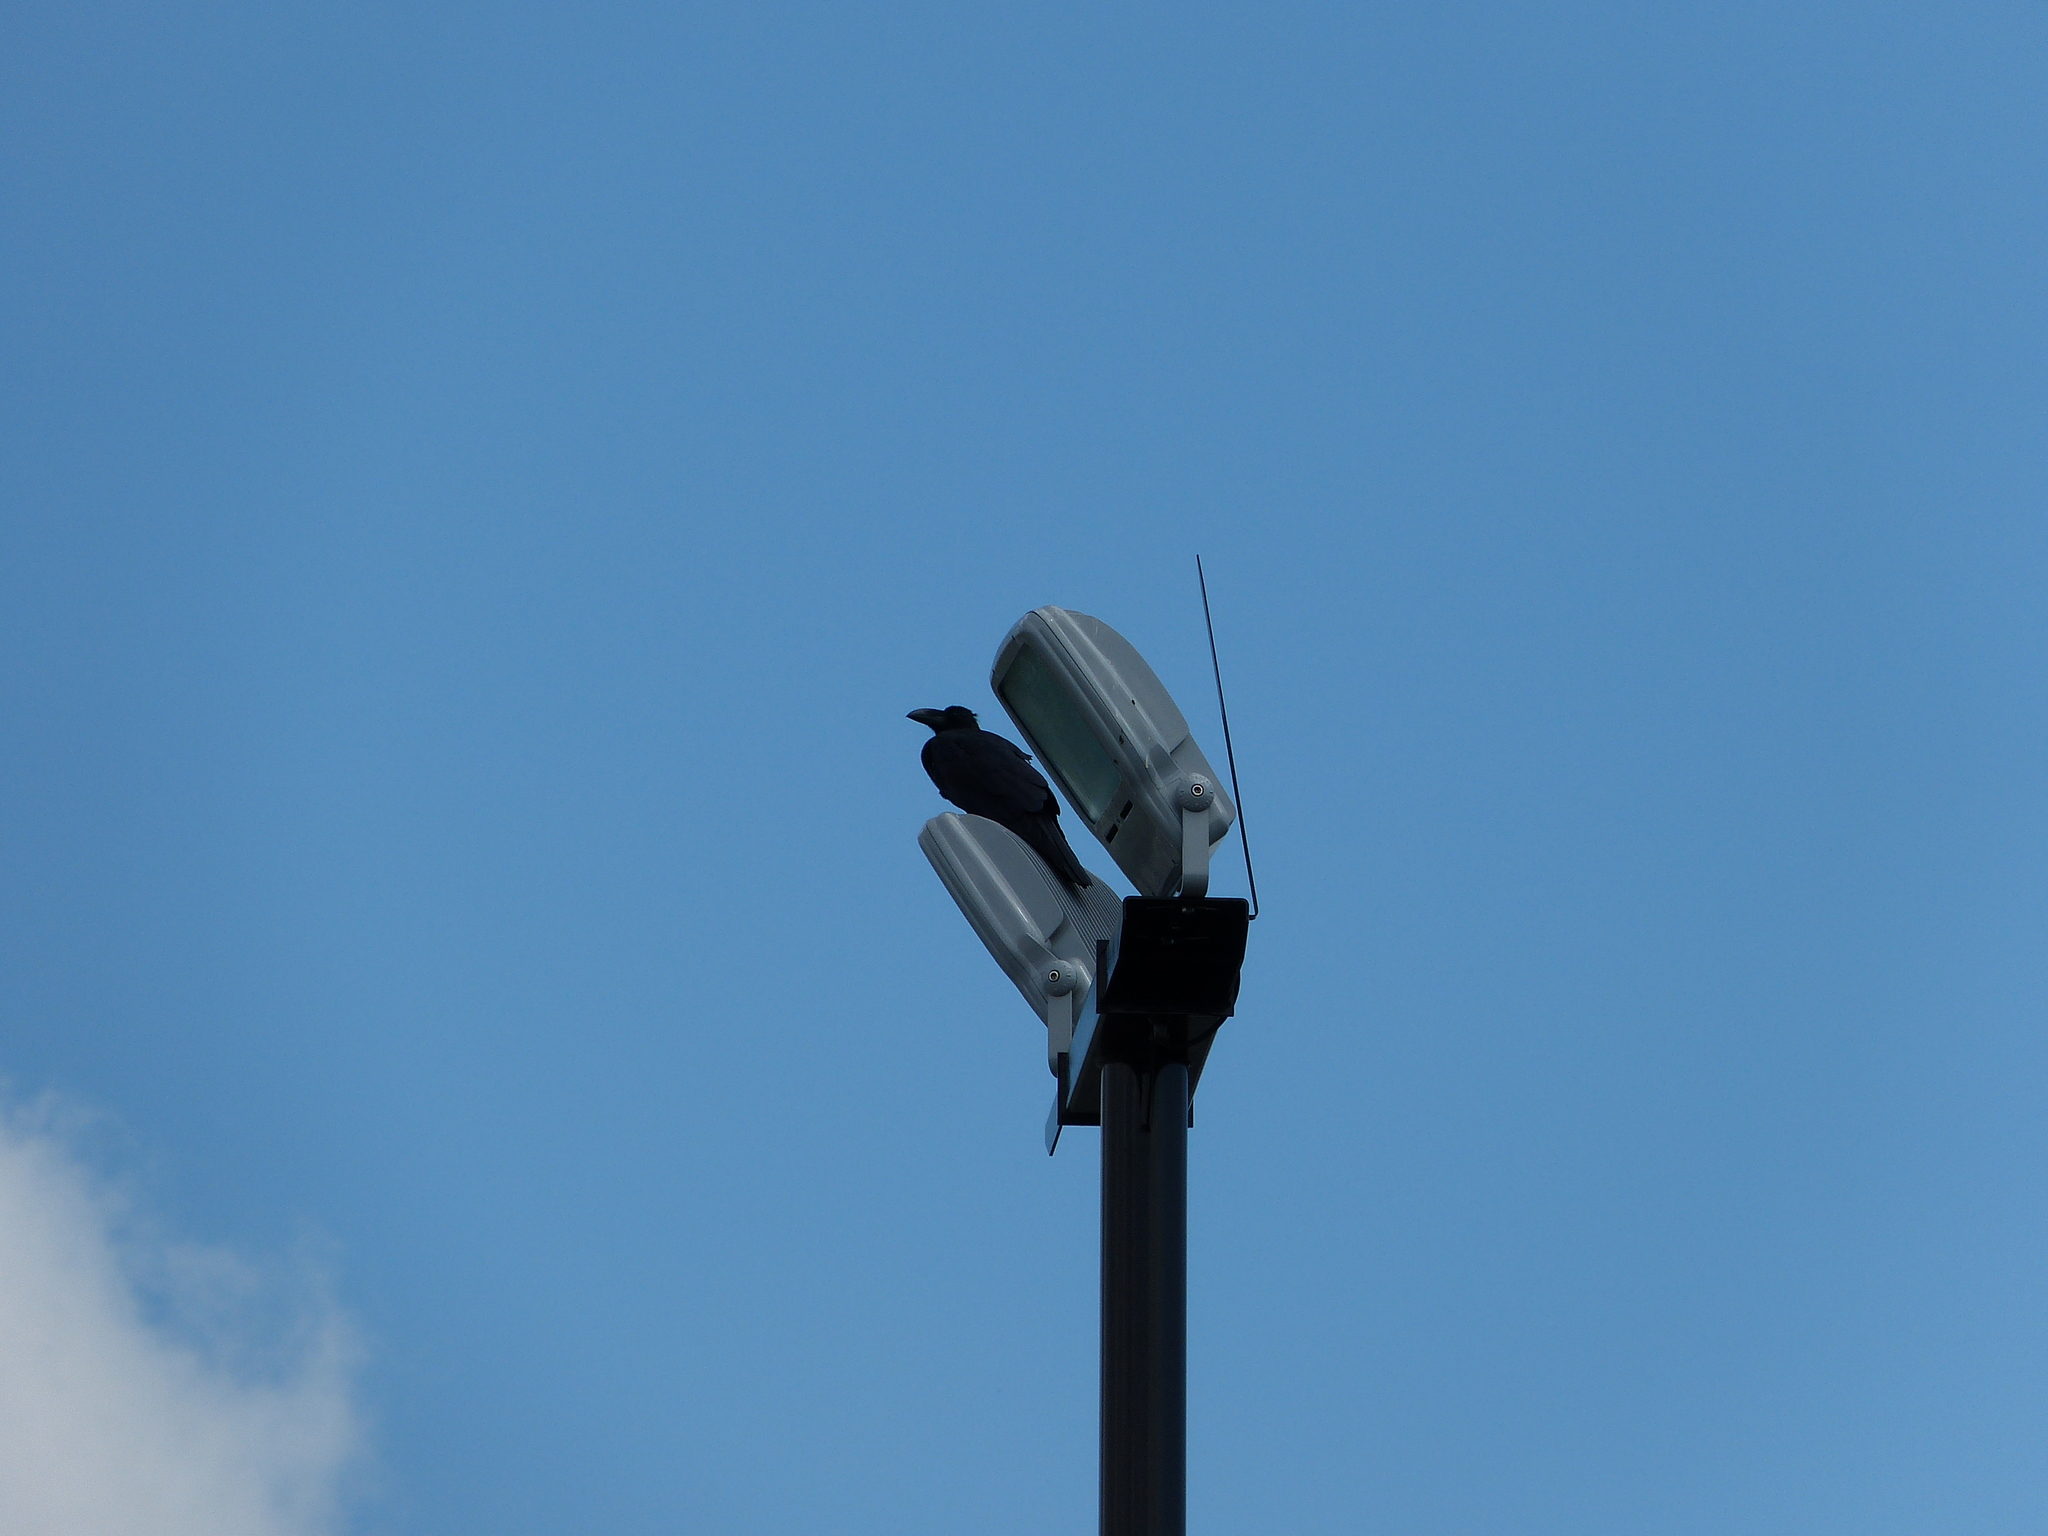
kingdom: Animalia
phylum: Chordata
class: Aves
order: Passeriformes
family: Corvidae
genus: Corvus
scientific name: Corvus macrorhynchos
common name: Large-billed crow
